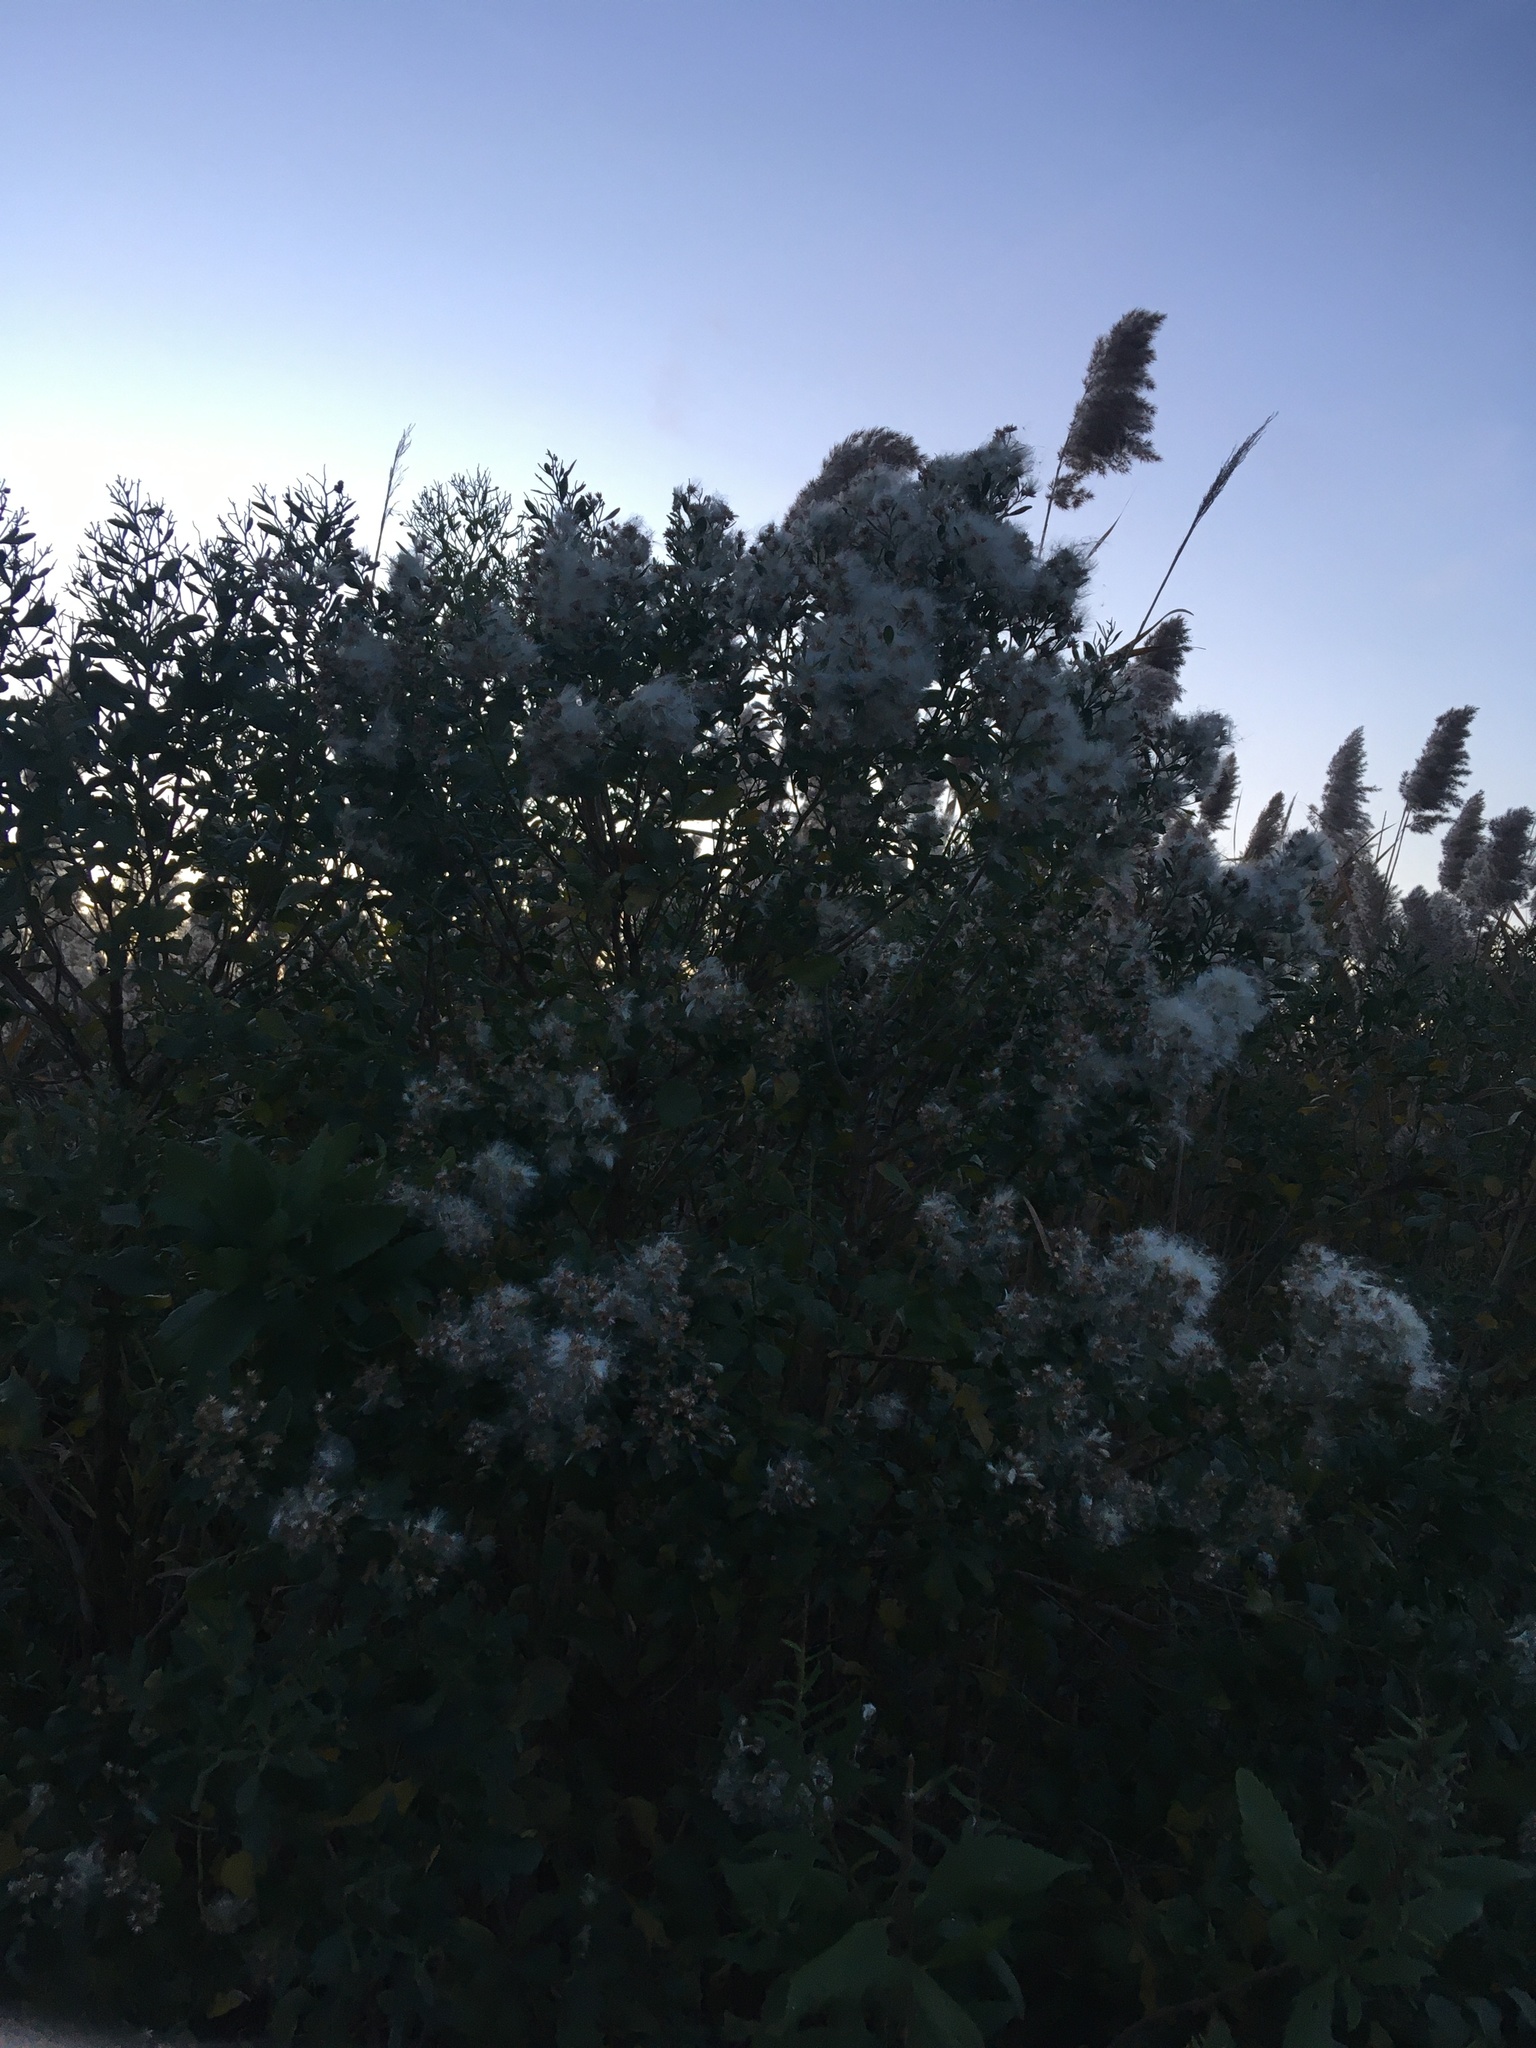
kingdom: Plantae
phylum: Tracheophyta
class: Magnoliopsida
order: Asterales
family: Asteraceae
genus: Baccharis
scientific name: Baccharis halimifolia
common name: Eastern baccharis
